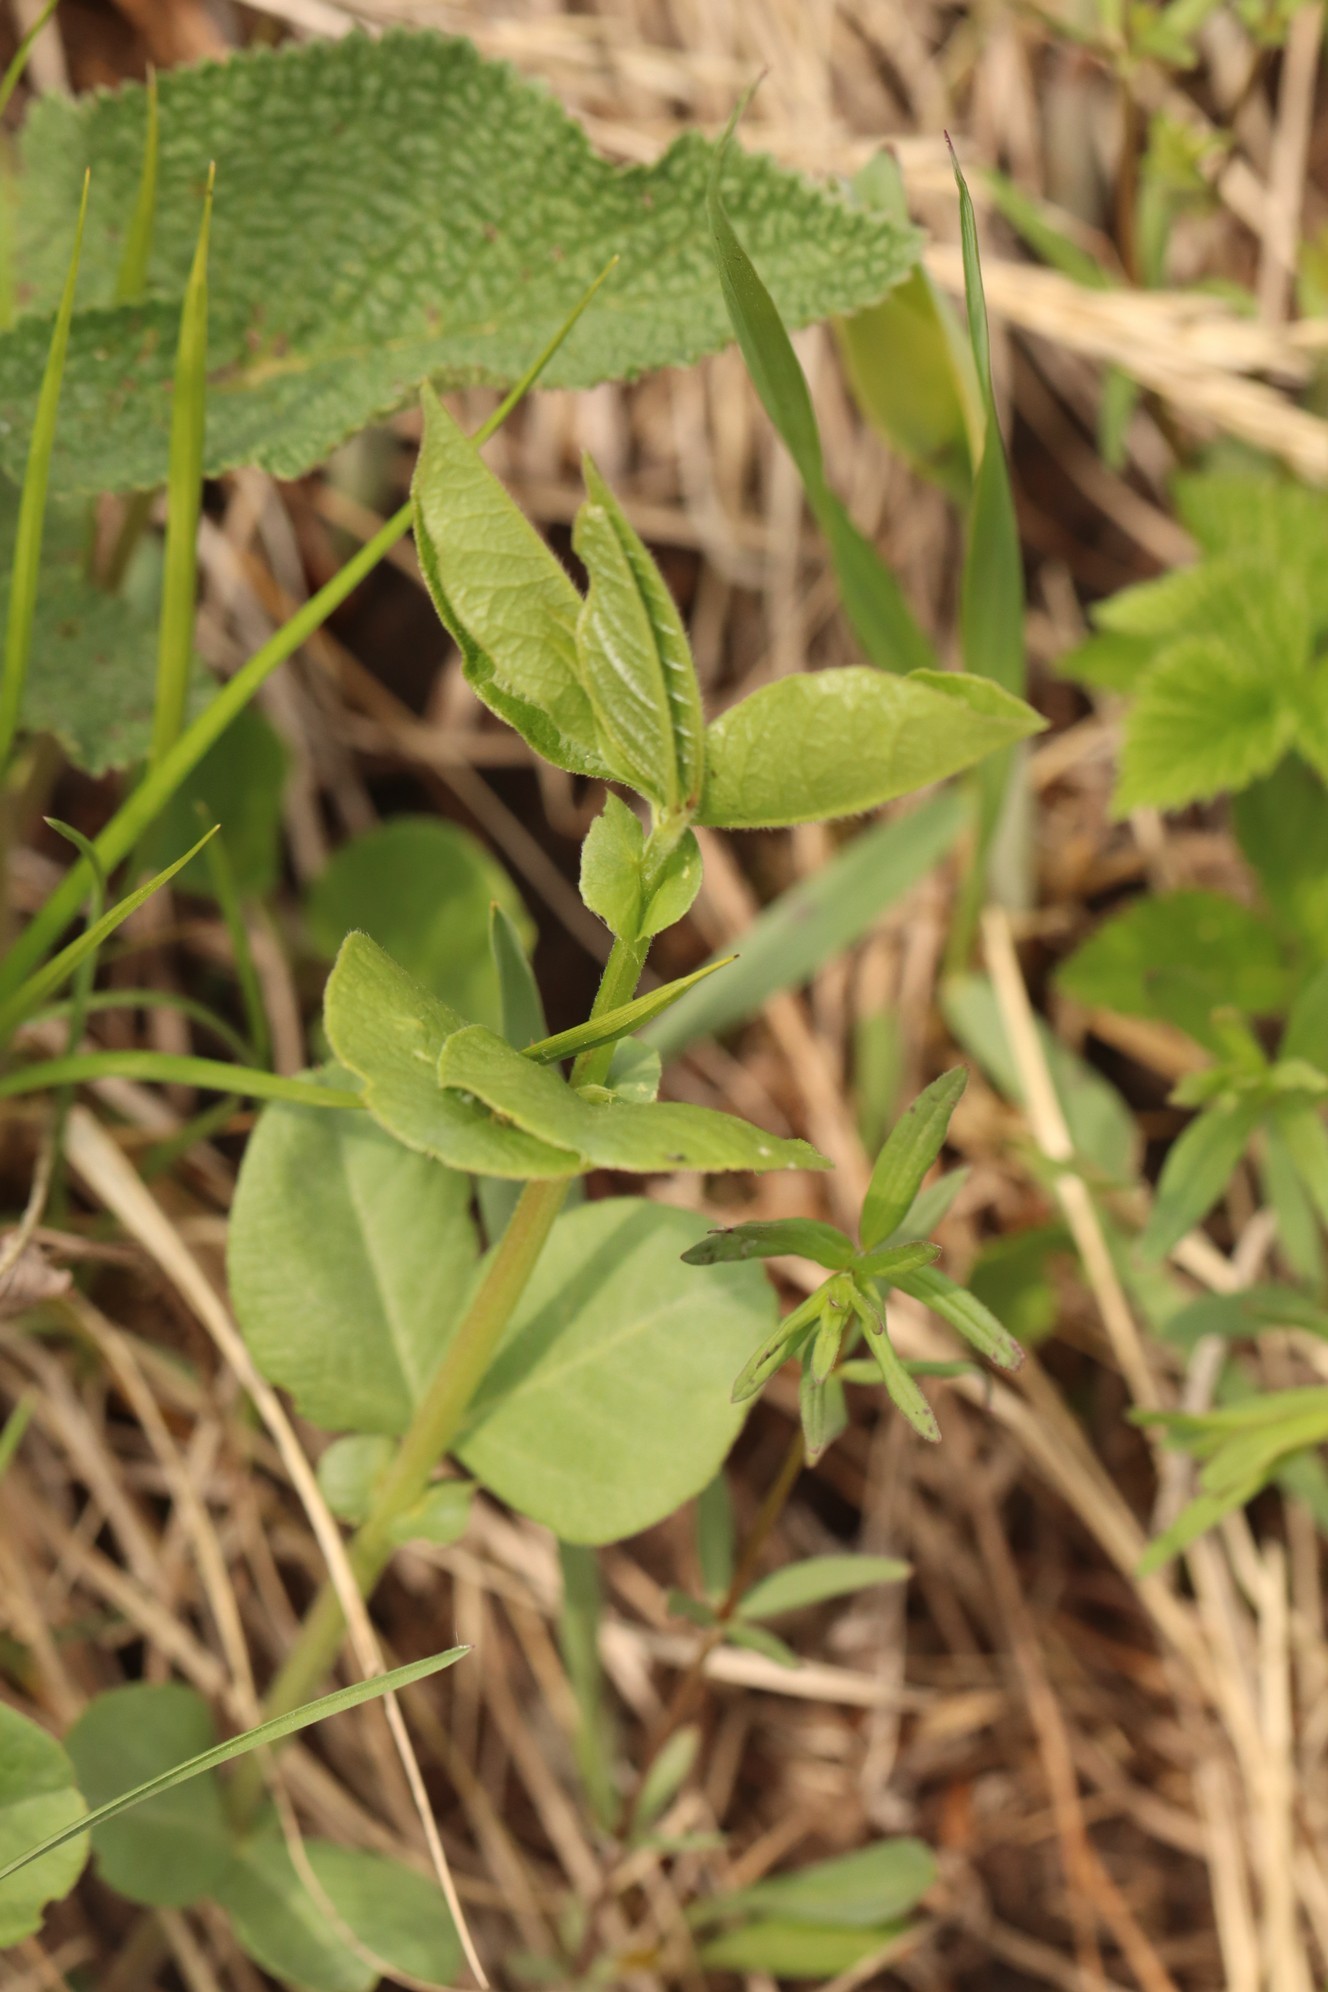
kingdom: Plantae
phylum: Tracheophyta
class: Magnoliopsida
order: Fabales
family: Fabaceae
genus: Vicia
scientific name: Vicia unijuga
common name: Two-leaf vetch
